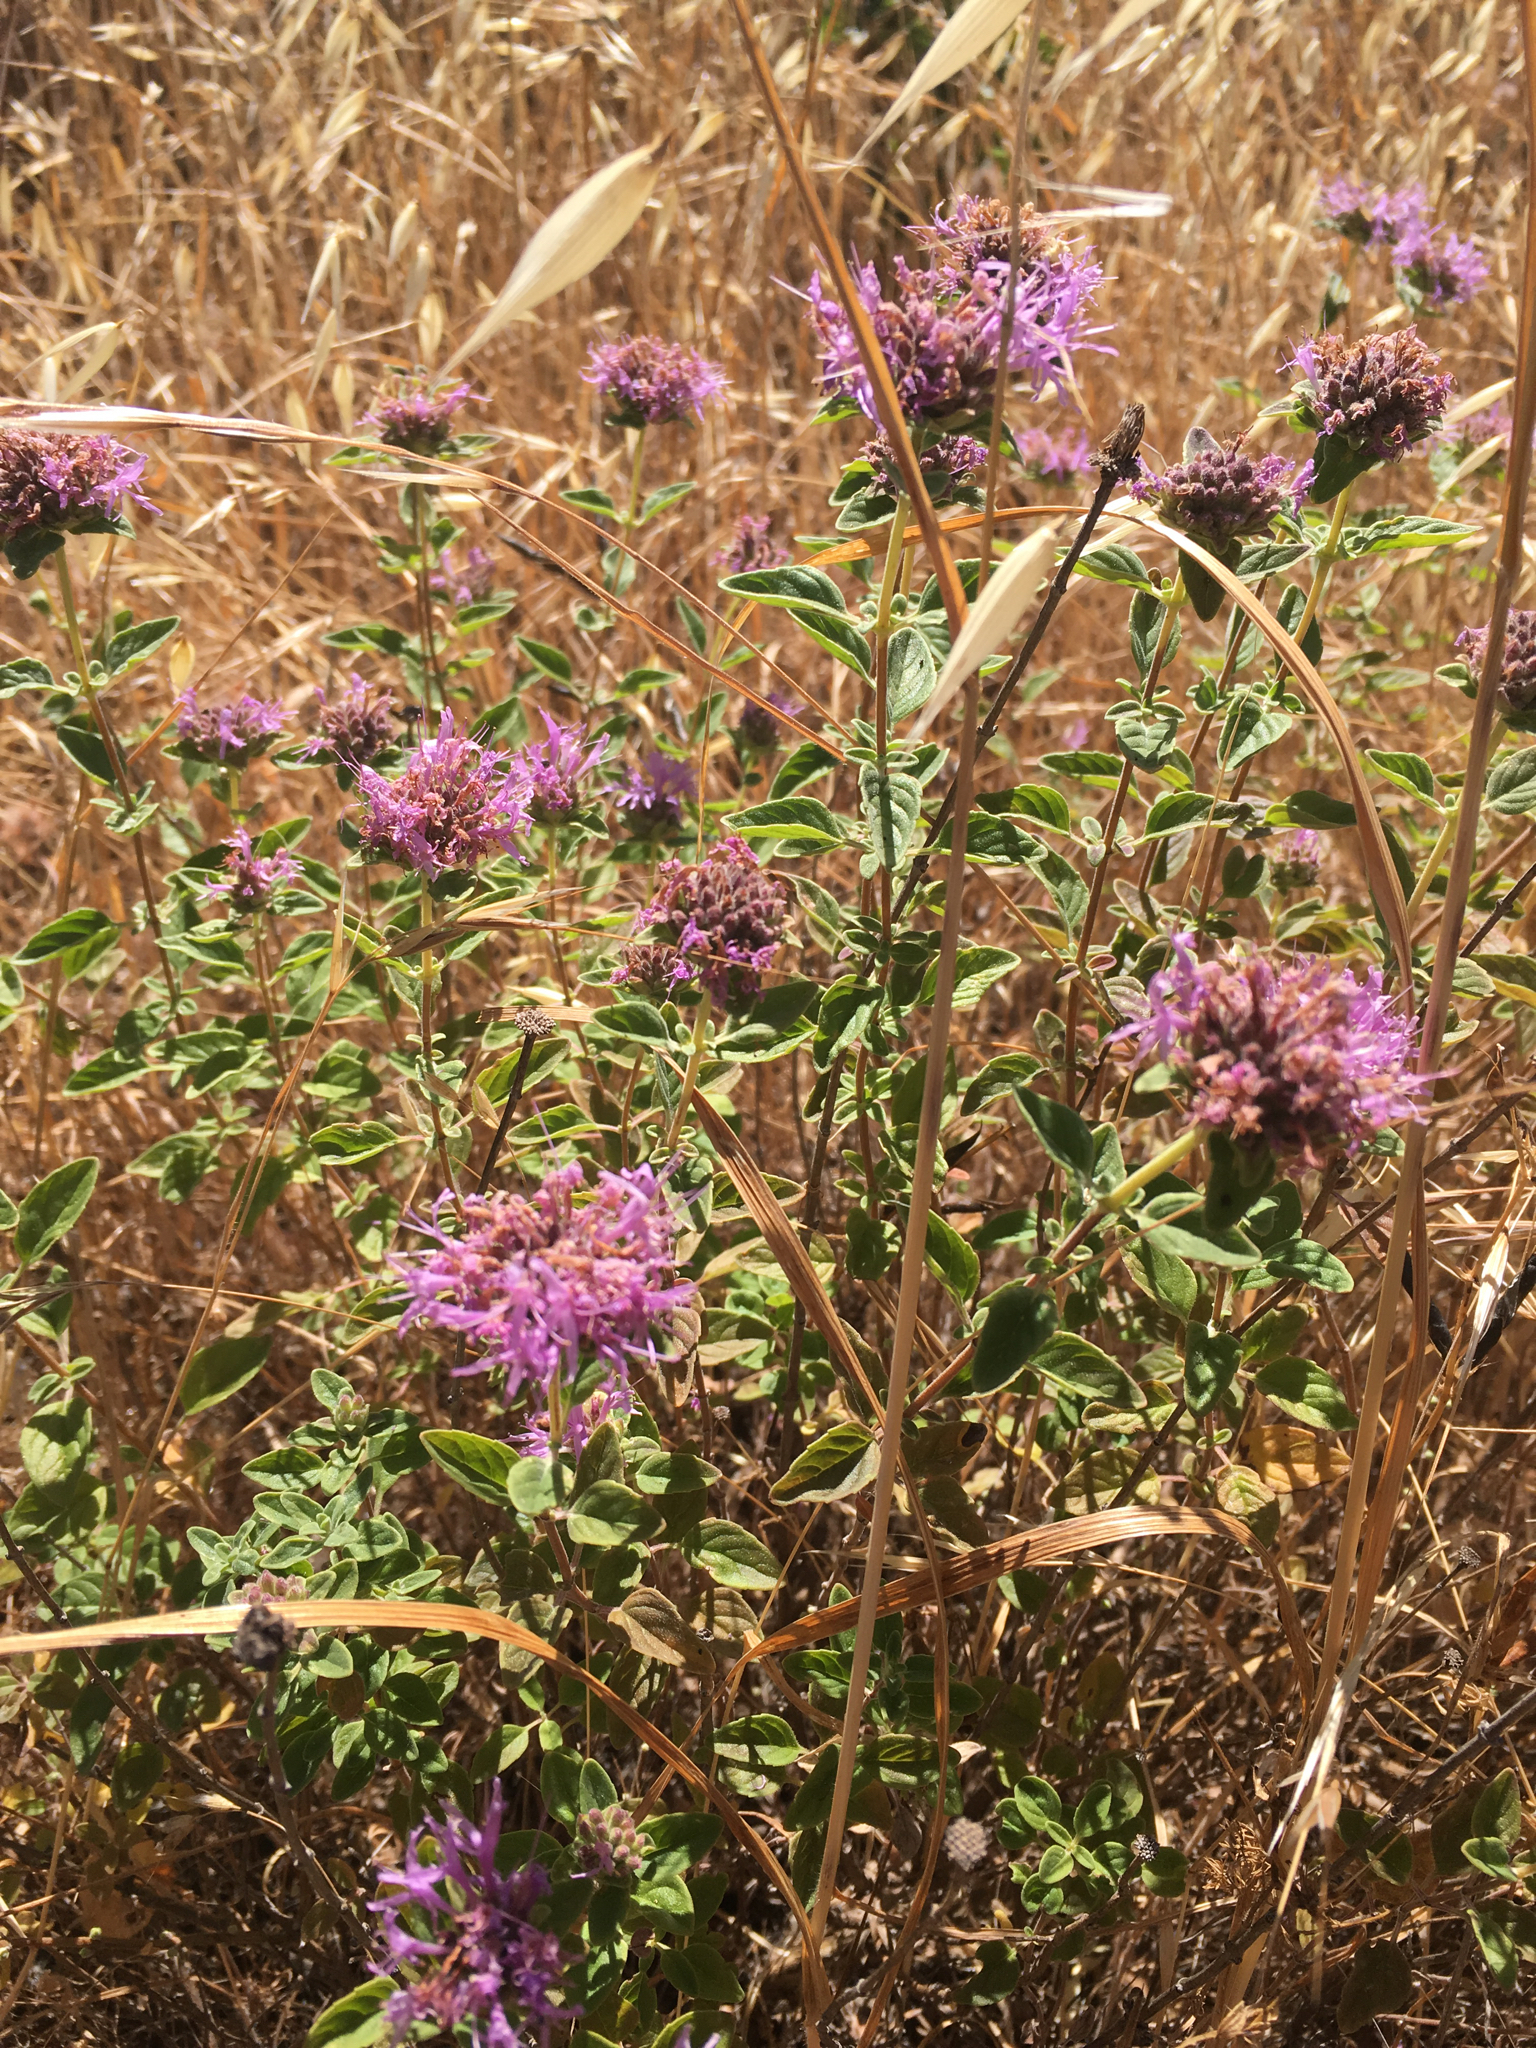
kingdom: Plantae
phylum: Tracheophyta
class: Magnoliopsida
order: Lamiales
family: Lamiaceae
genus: Monardella
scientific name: Monardella odoratissima
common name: Pacific monardella
